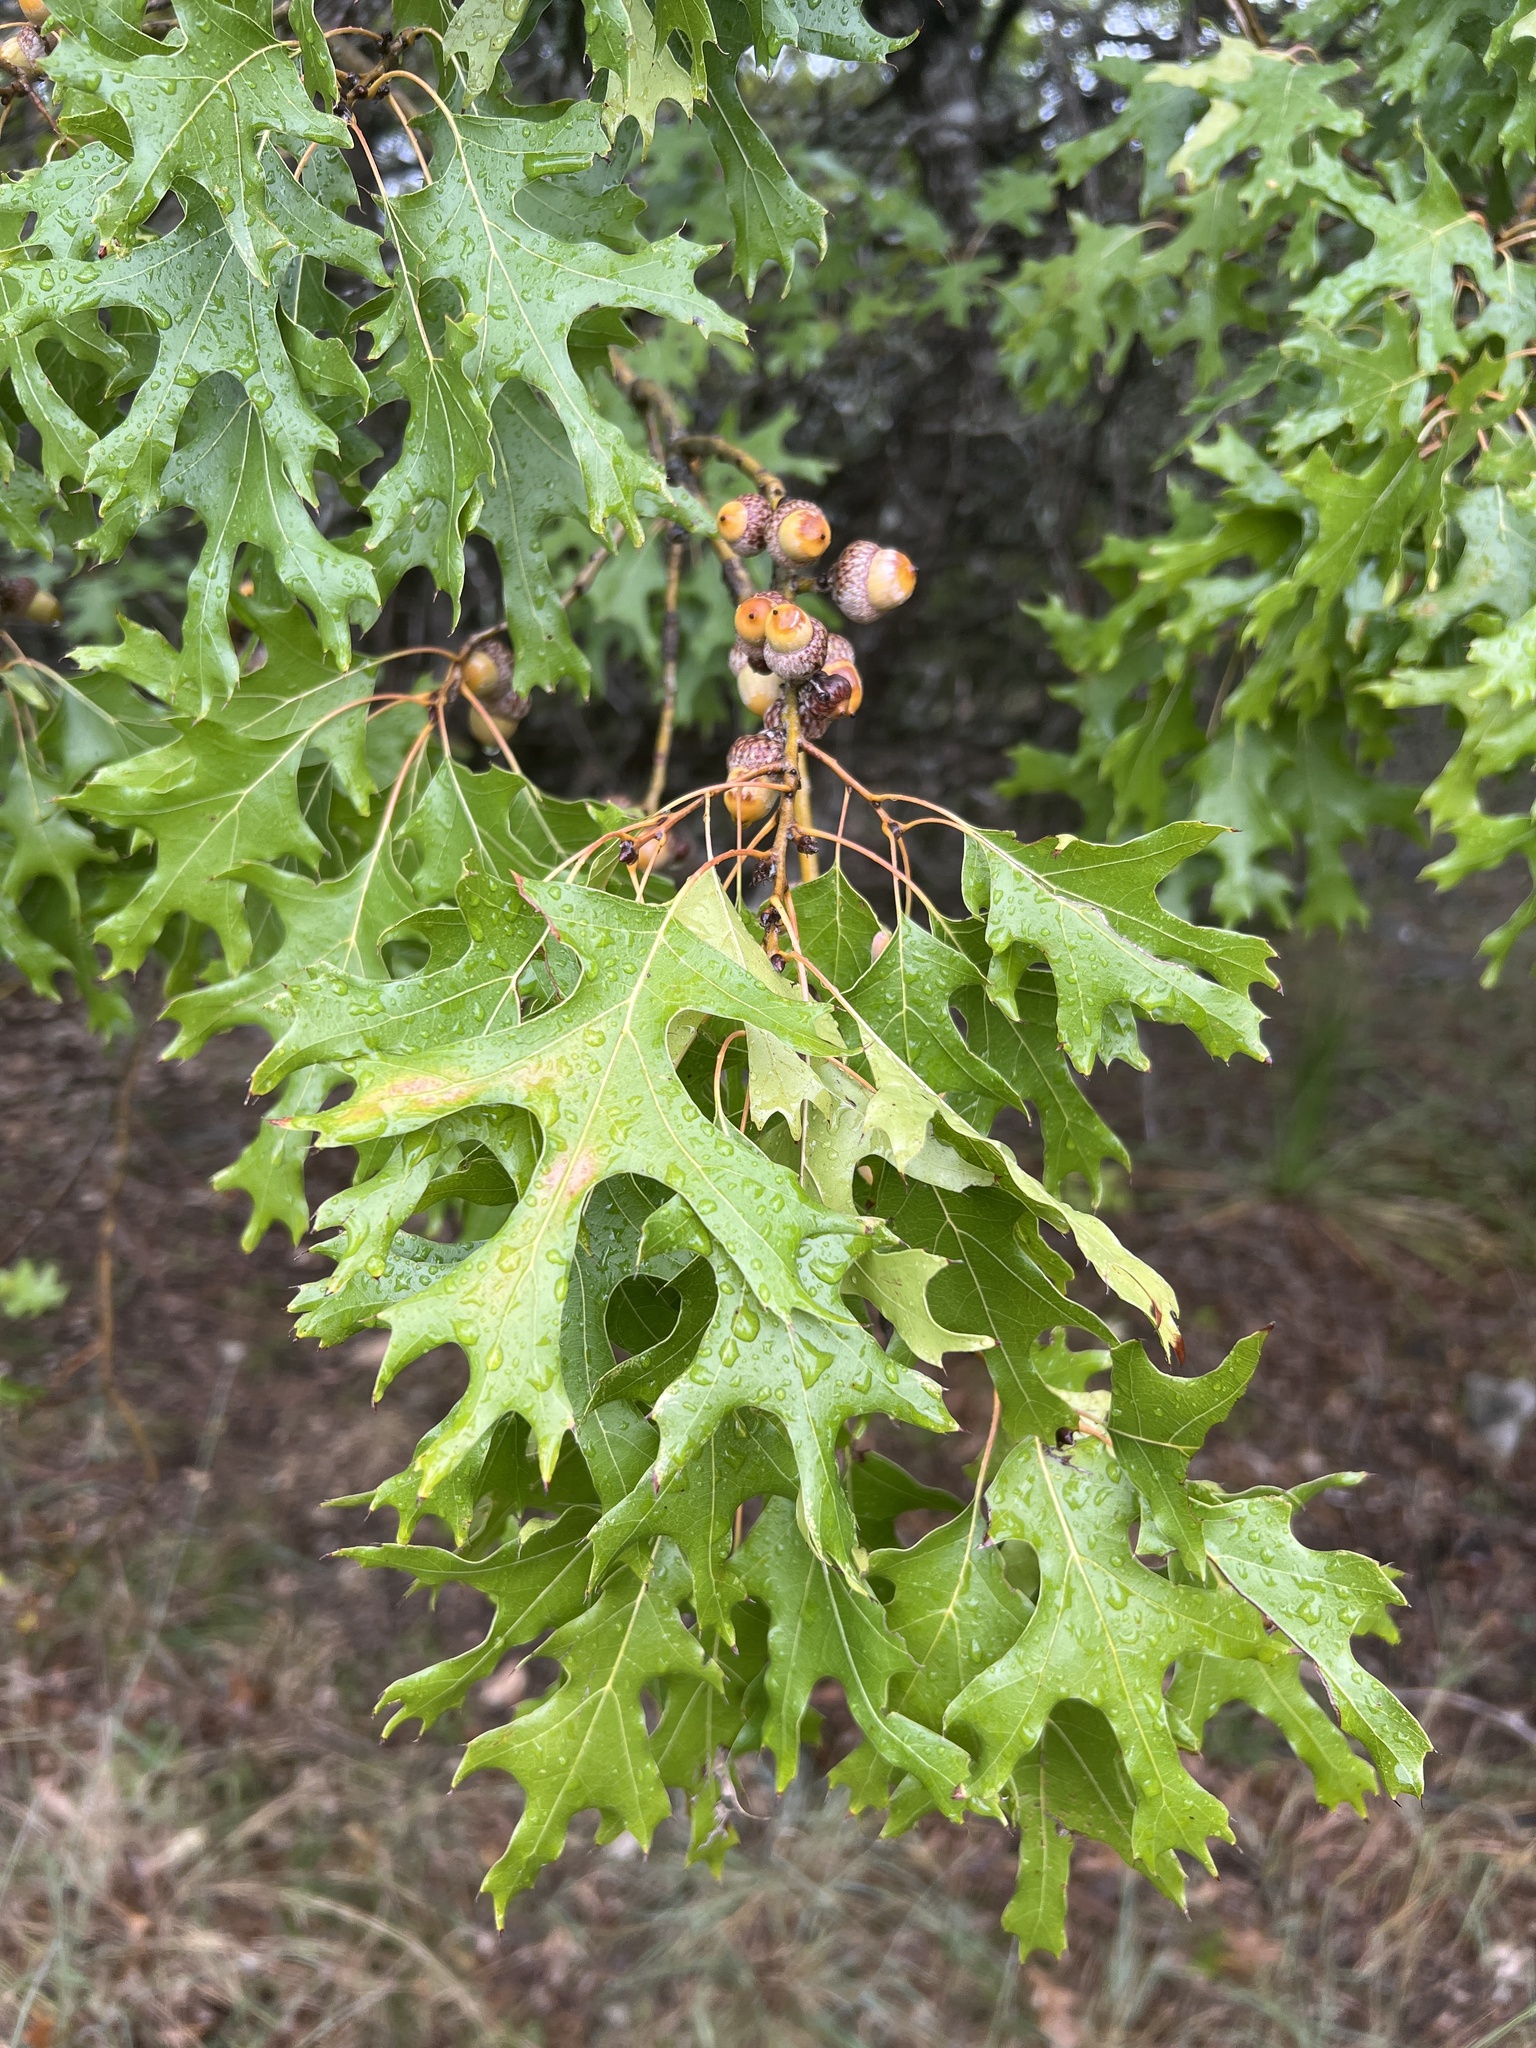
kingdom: Plantae
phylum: Tracheophyta
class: Magnoliopsida
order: Fagales
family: Fagaceae
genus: Quercus
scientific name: Quercus buckleyi
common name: Buckley oak
